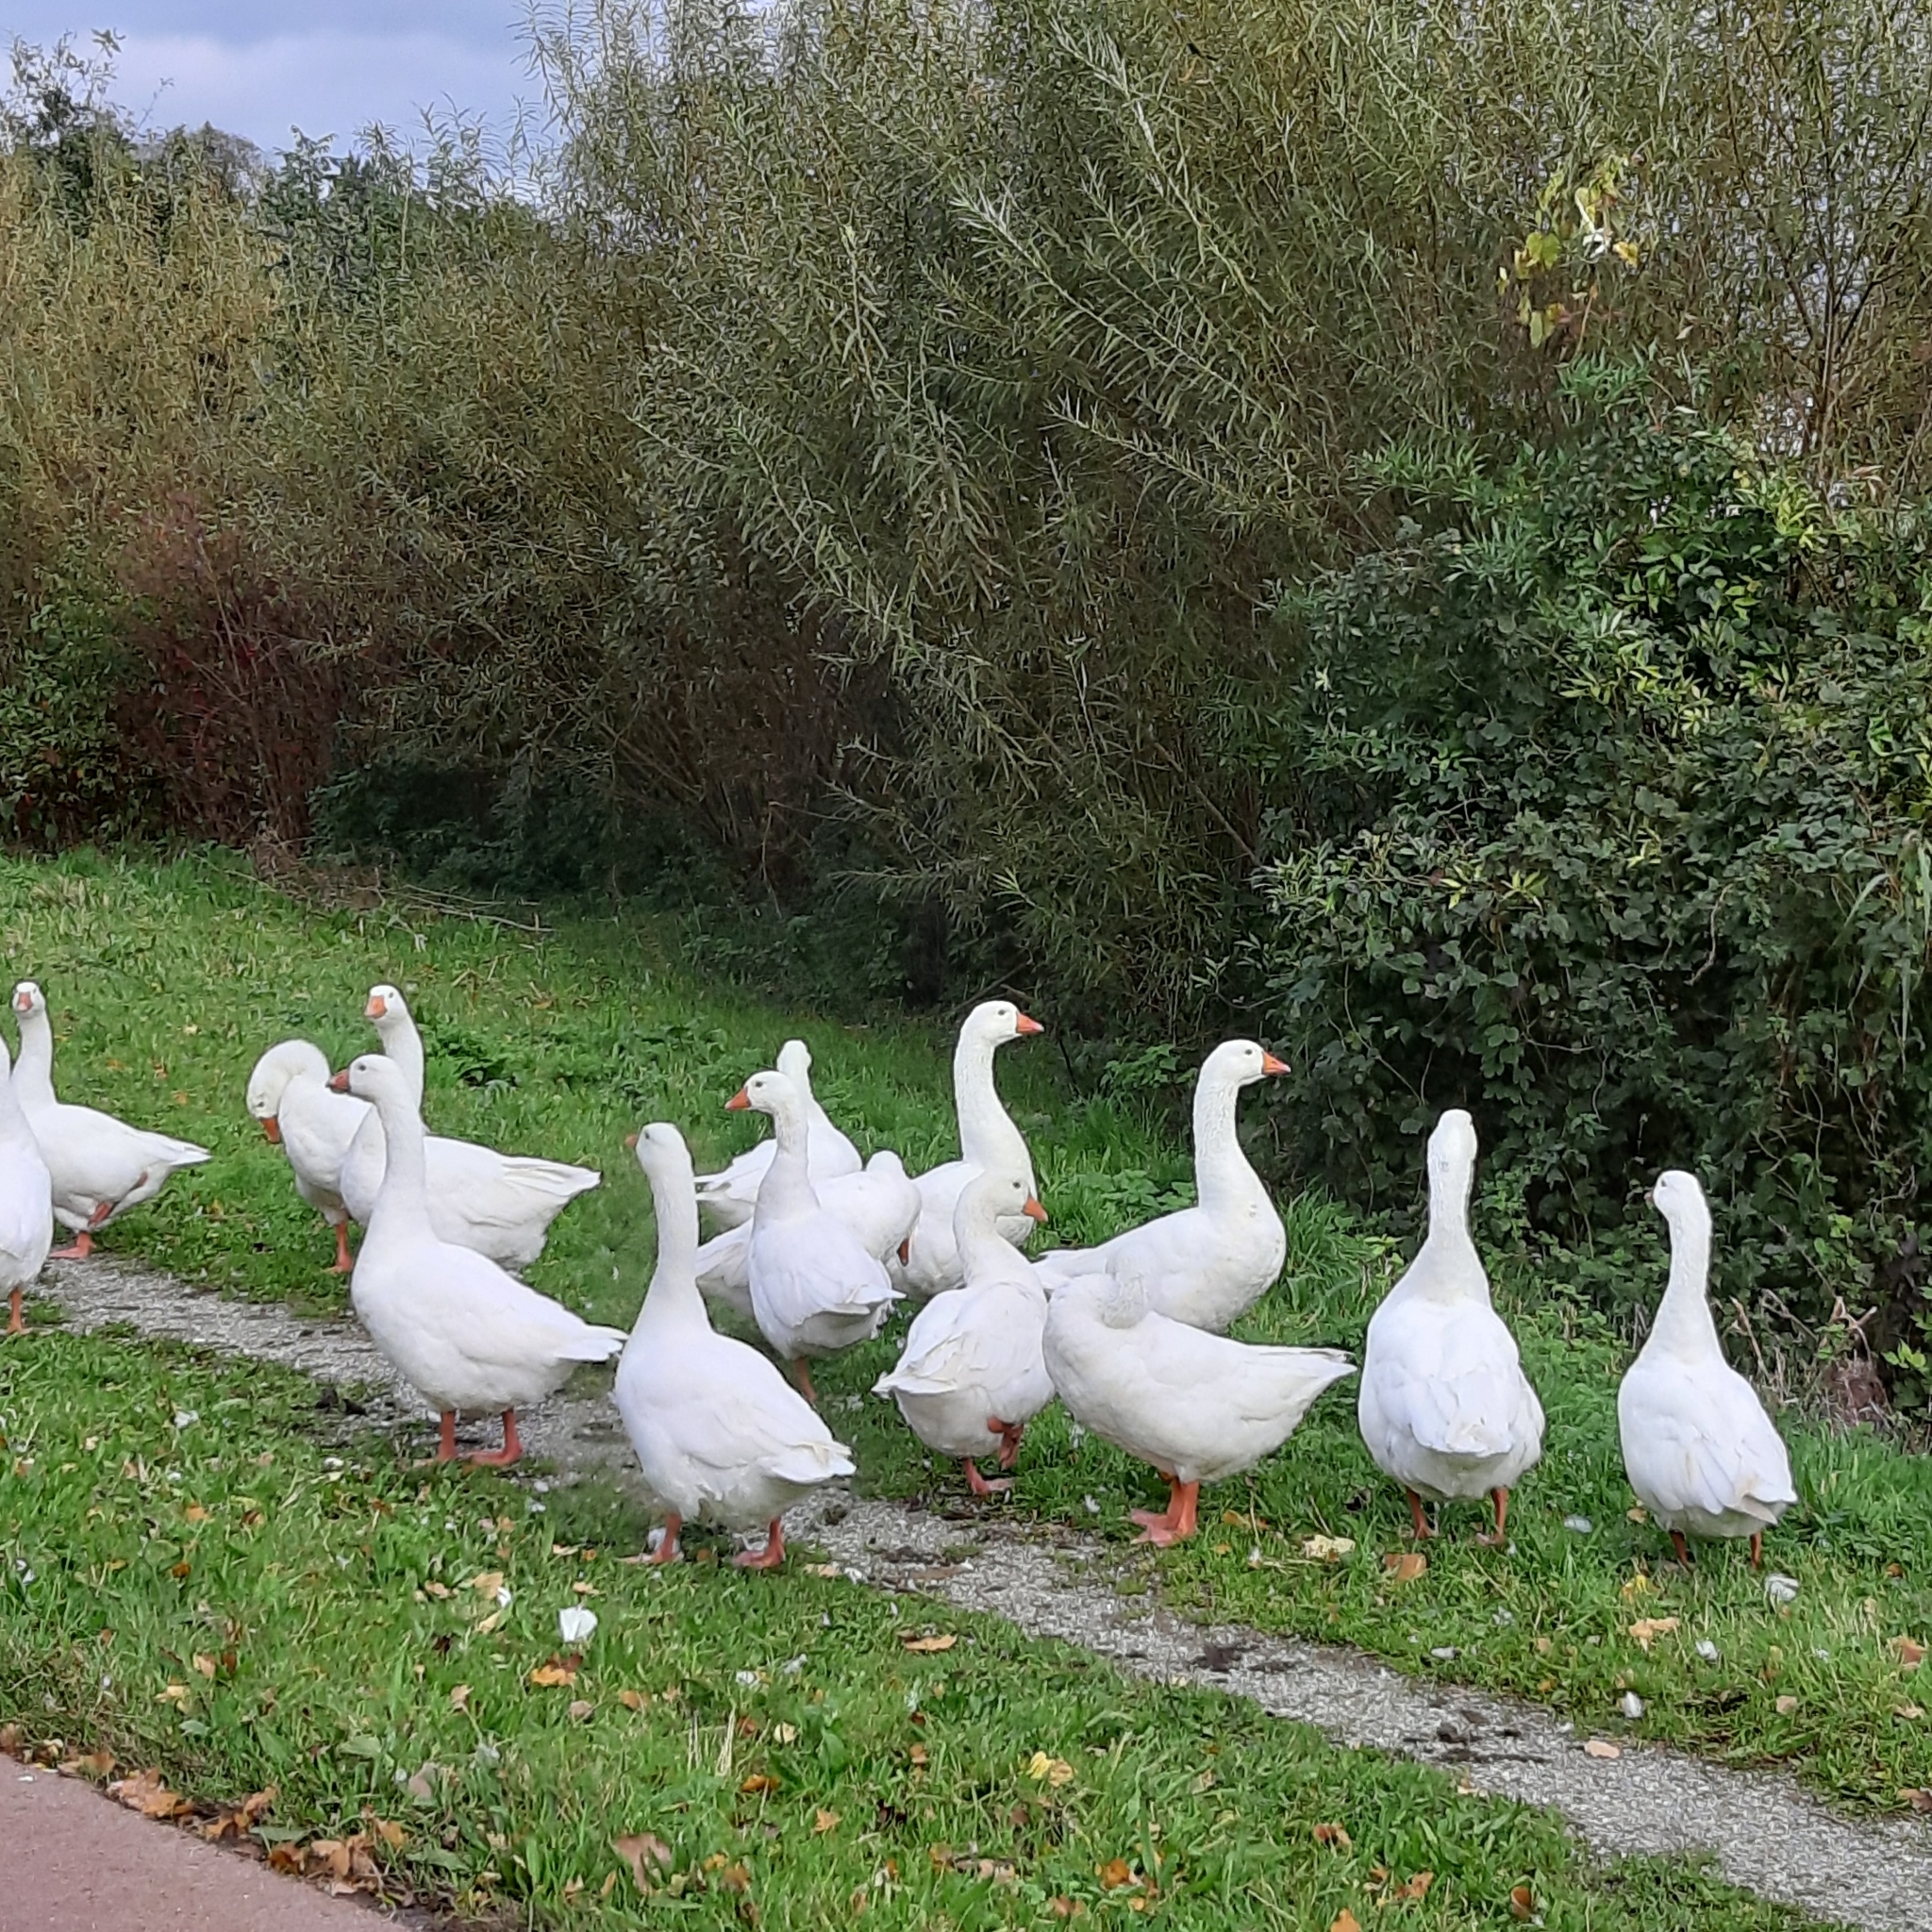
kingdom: Animalia
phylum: Chordata
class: Aves
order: Anseriformes
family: Anatidae
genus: Anser
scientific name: Anser anser
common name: Greylag goose
